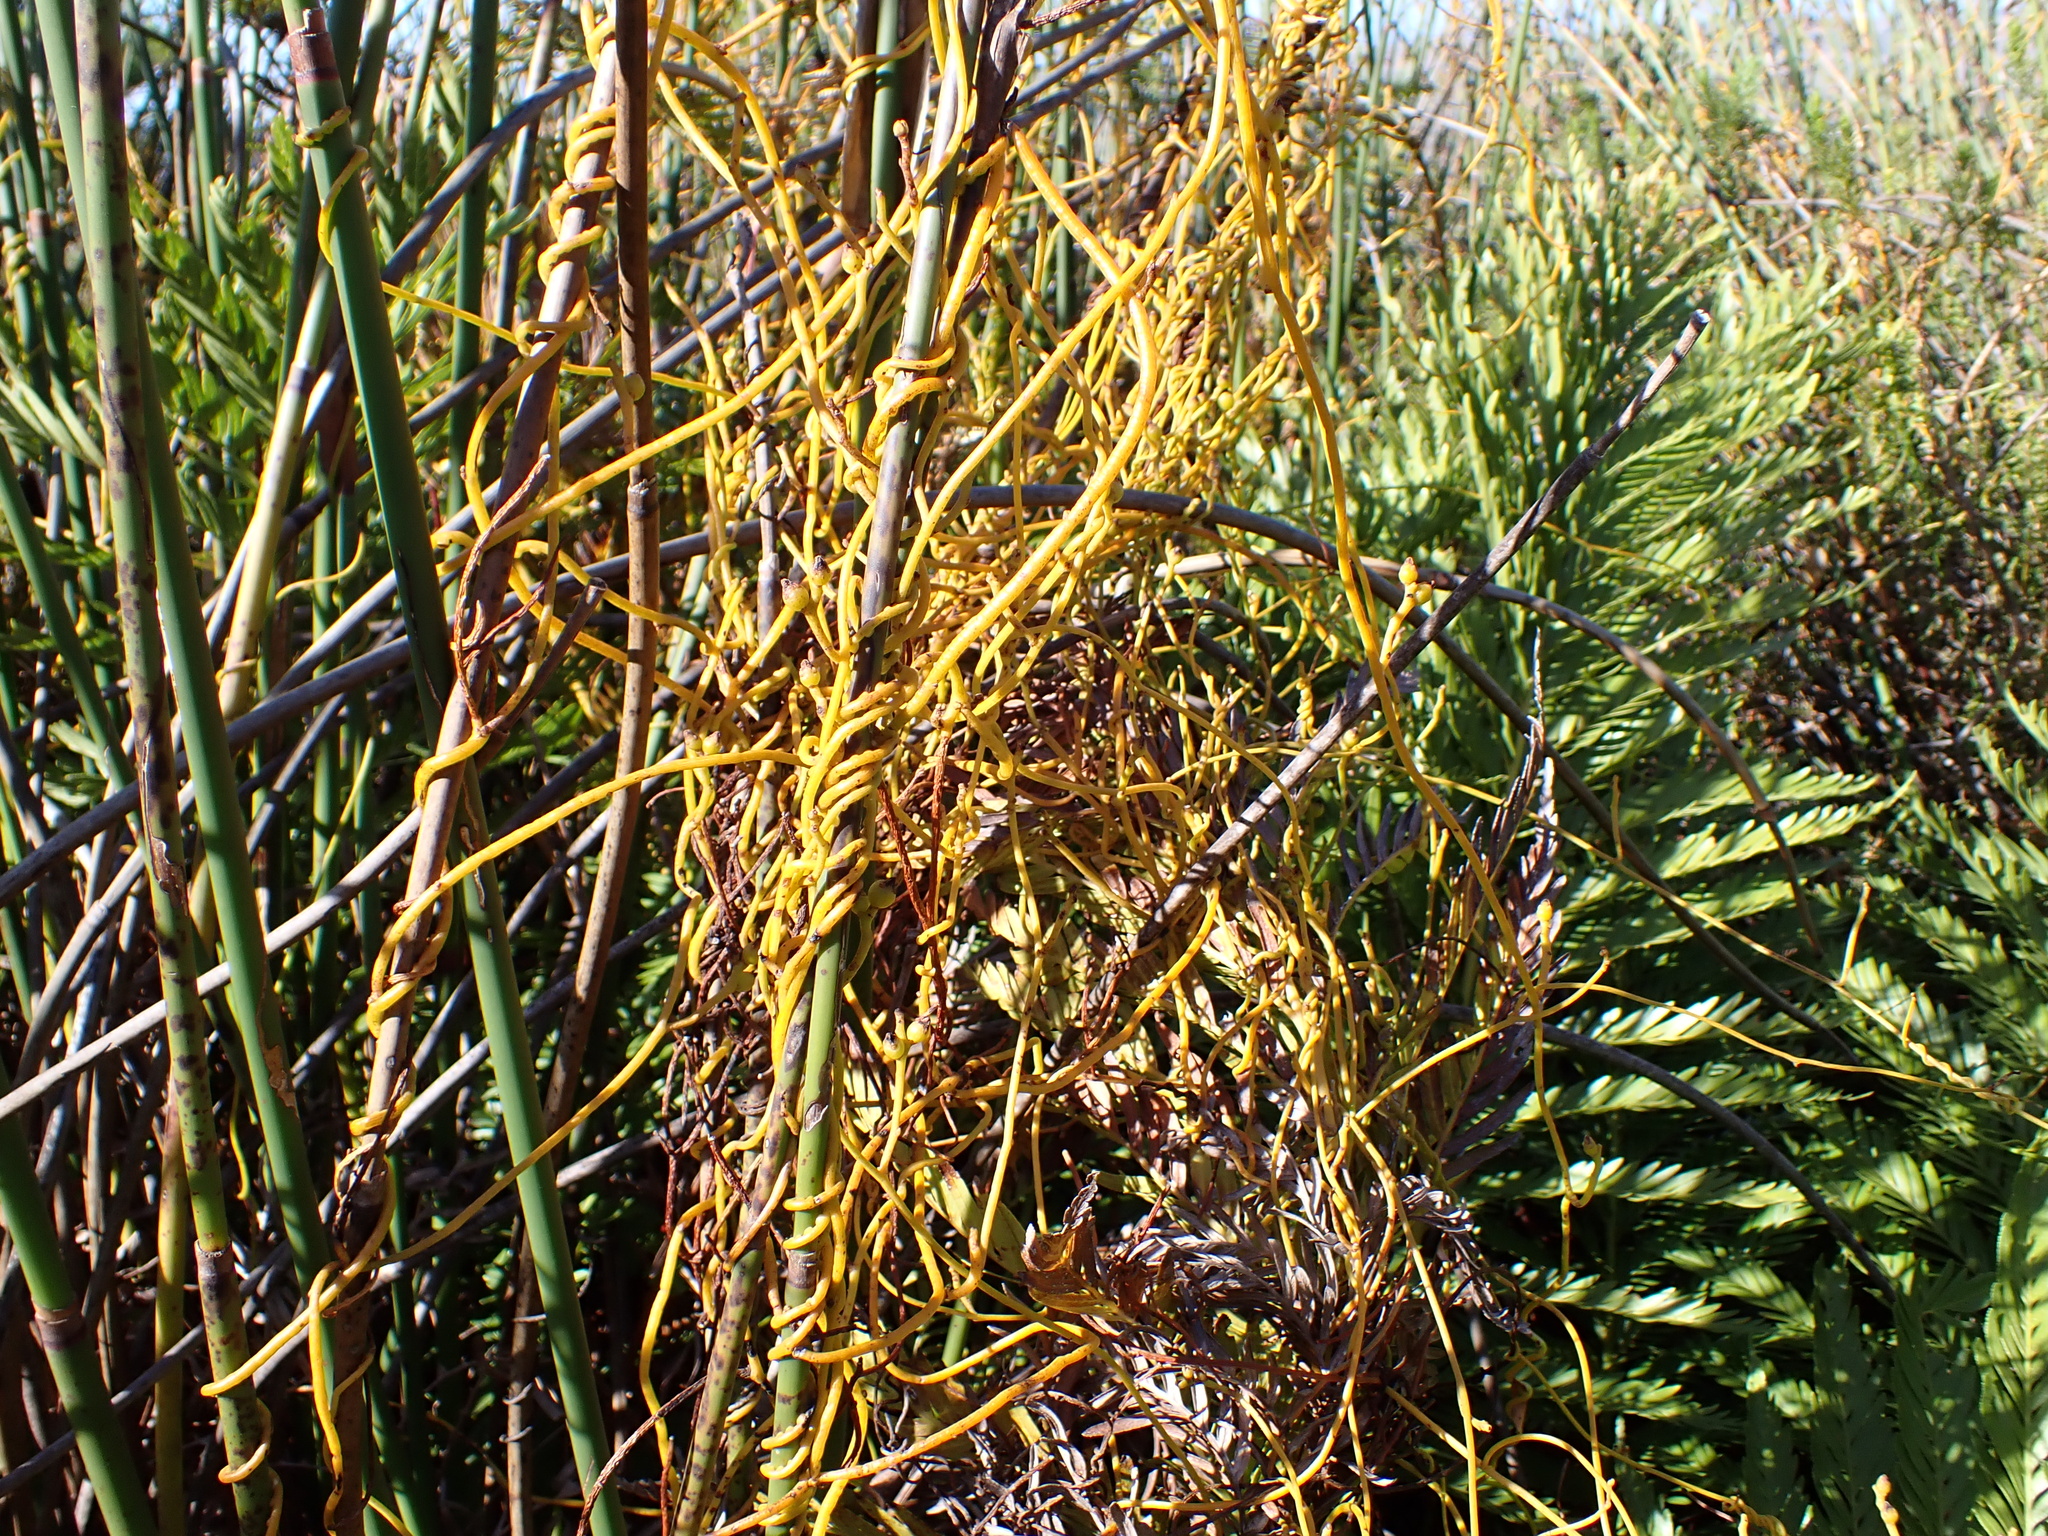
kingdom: Plantae
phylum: Tracheophyta
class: Magnoliopsida
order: Laurales
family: Lauraceae
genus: Cassytha
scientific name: Cassytha ciliolata
